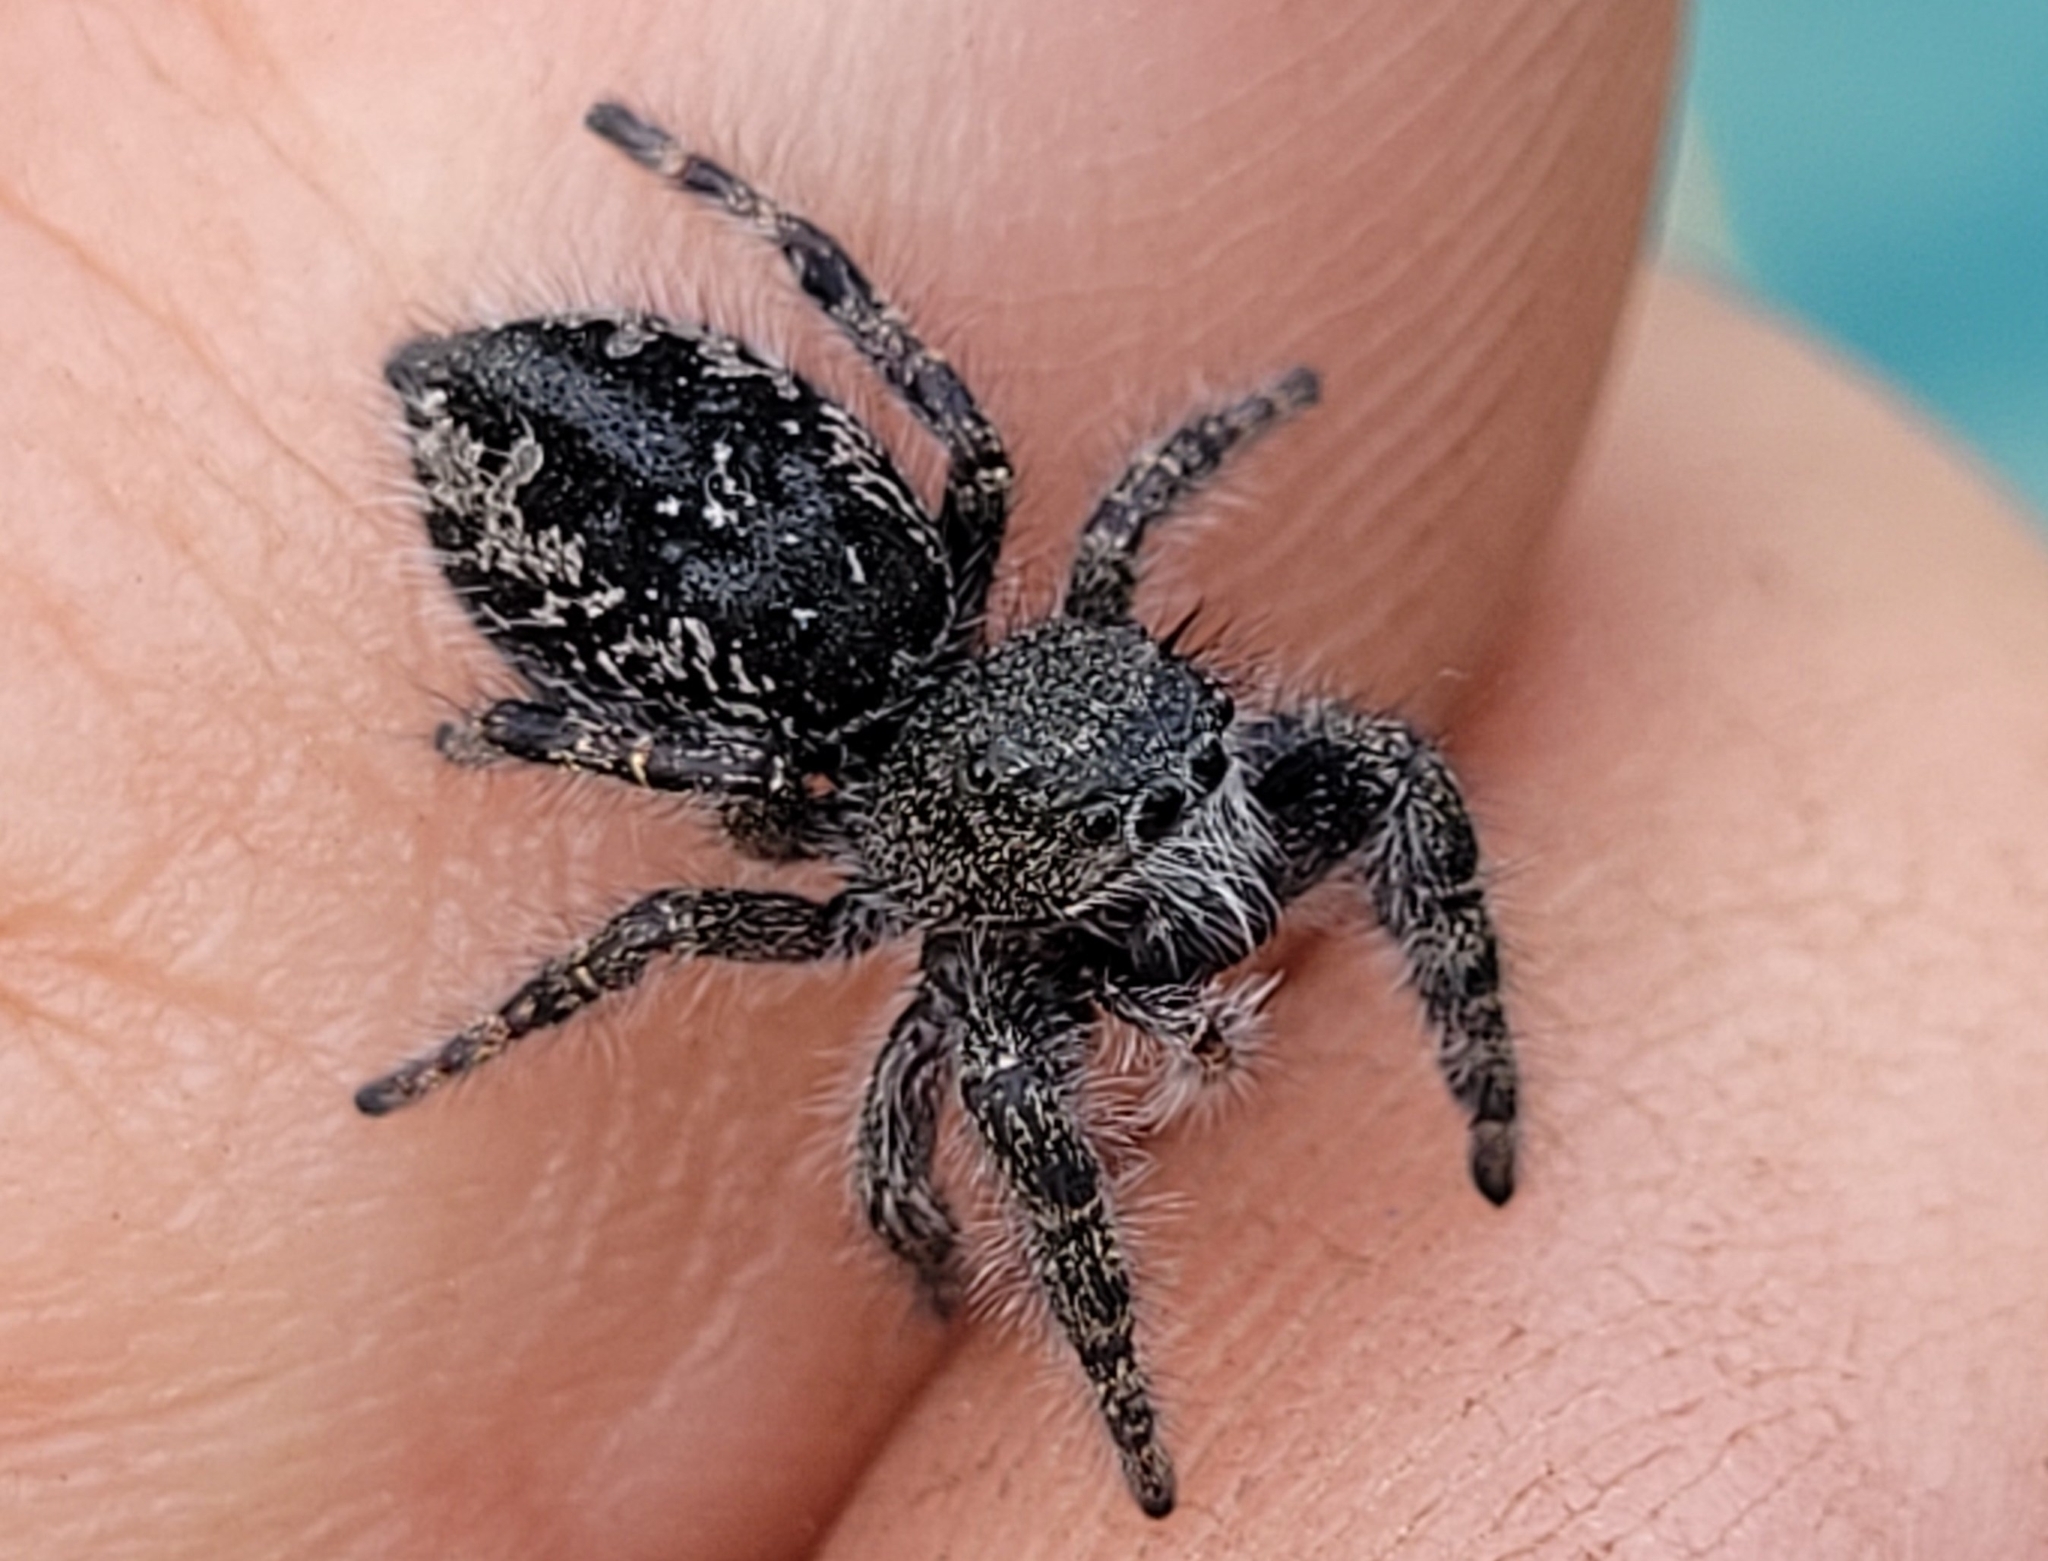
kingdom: Animalia
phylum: Arthropoda
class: Arachnida
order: Araneae
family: Salticidae
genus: Phidippus
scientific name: Phidippus borealis
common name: Boreal tufted jumping spider
